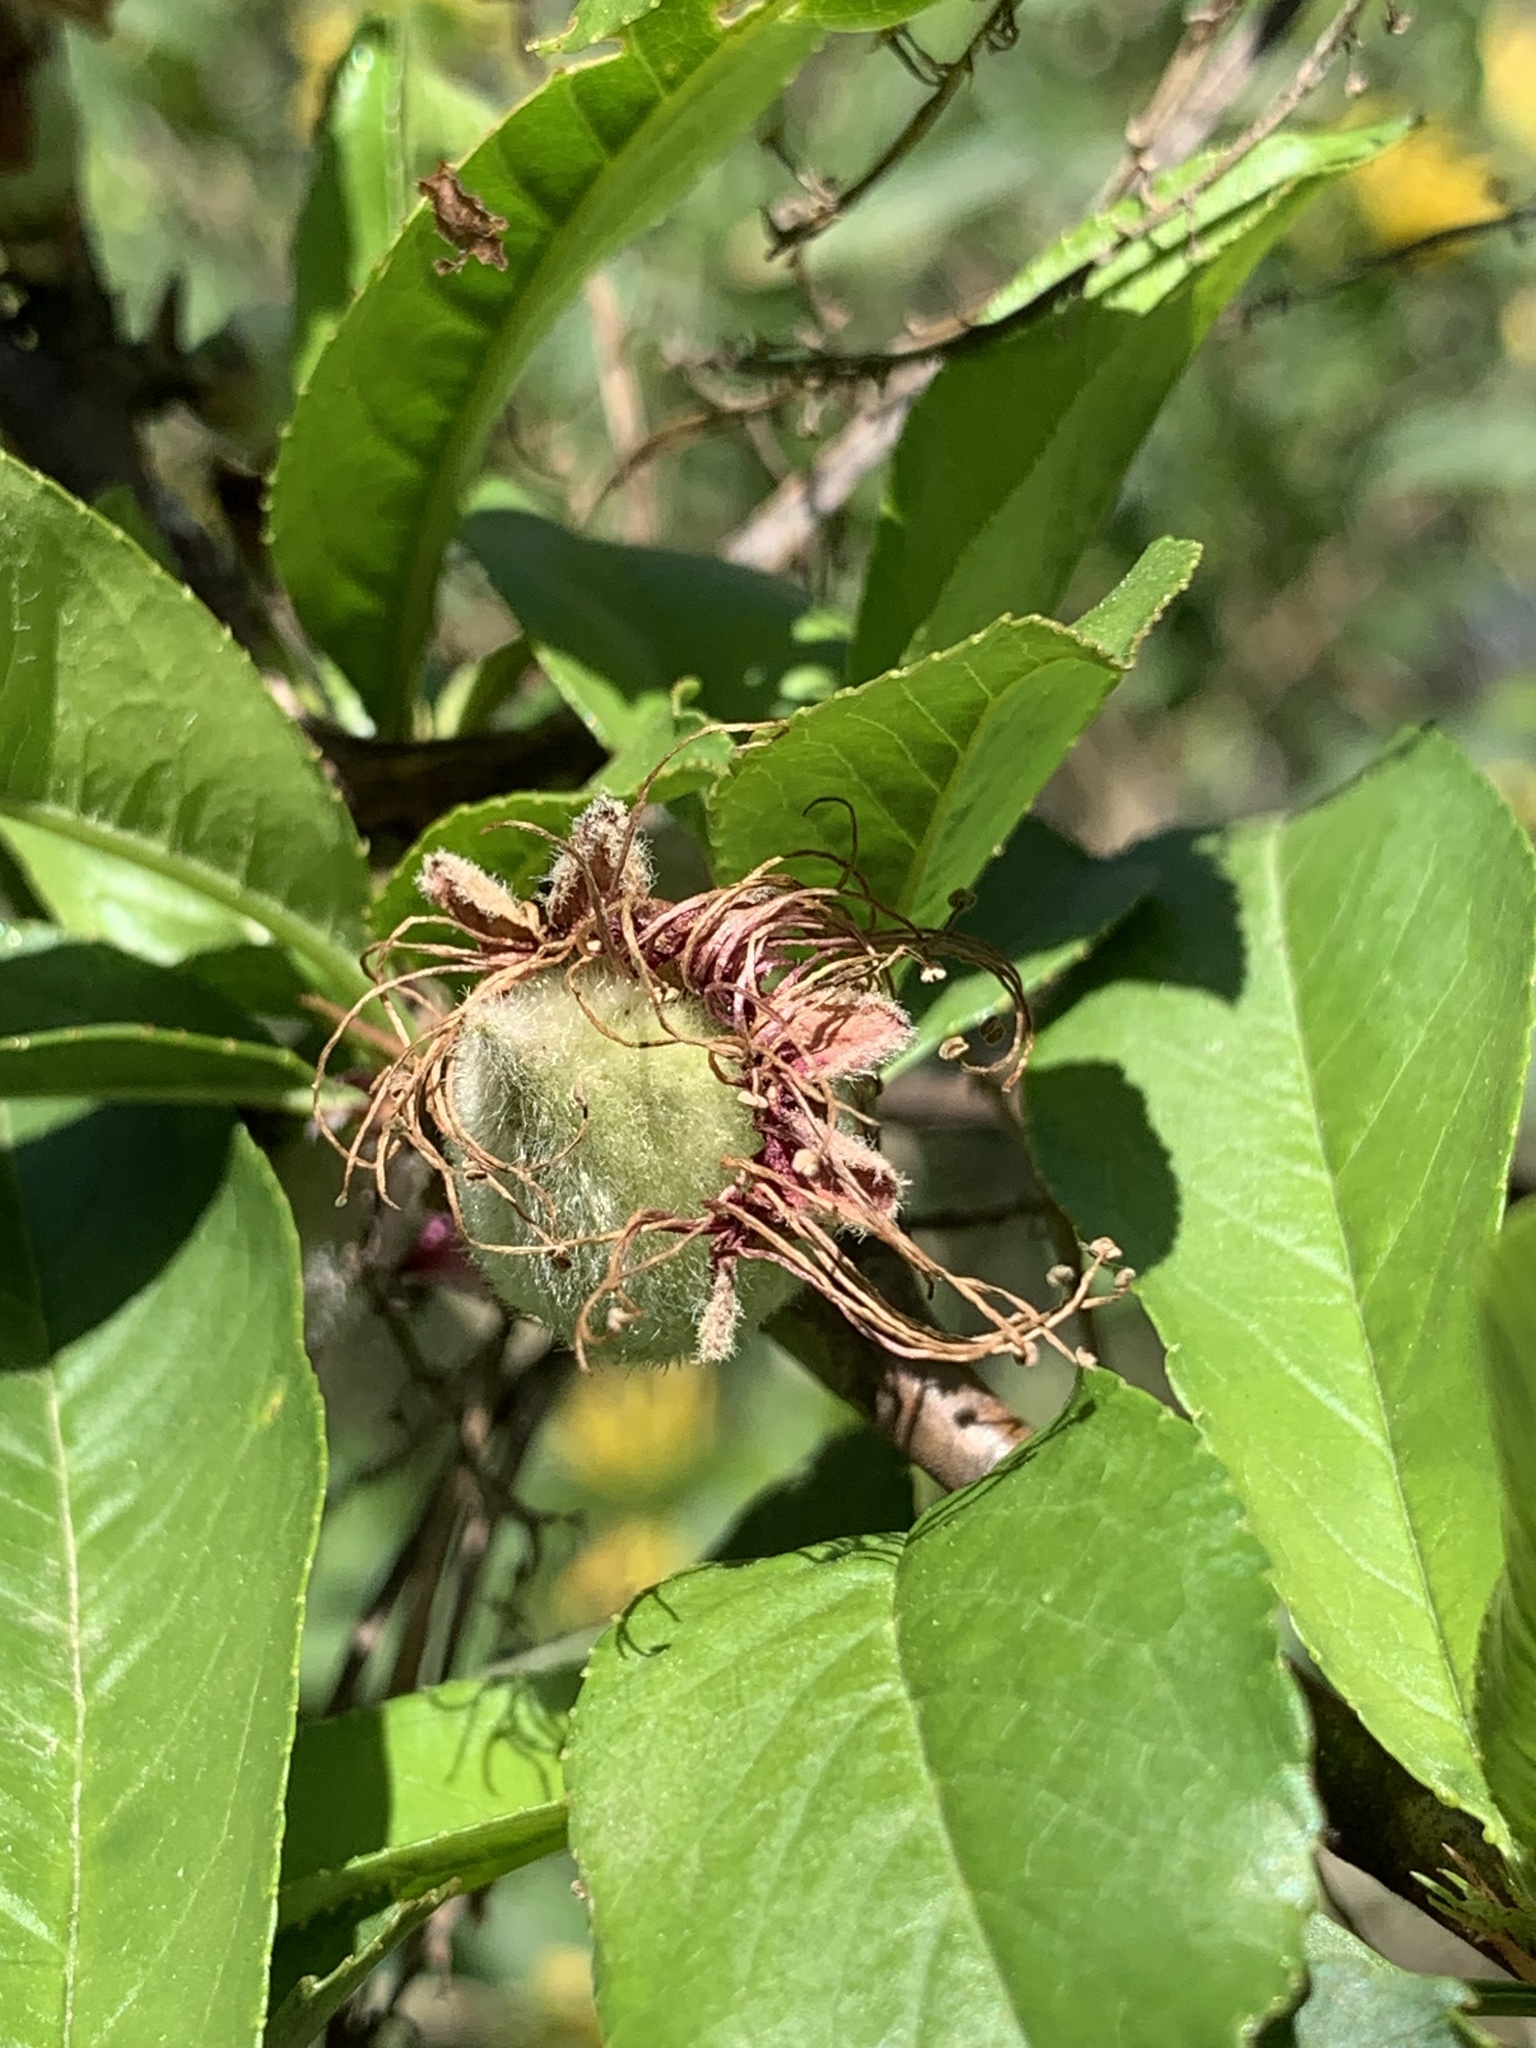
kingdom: Plantae
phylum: Tracheophyta
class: Magnoliopsida
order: Rosales
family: Rosaceae
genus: Prunus
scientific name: Prunus persica
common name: Peach
